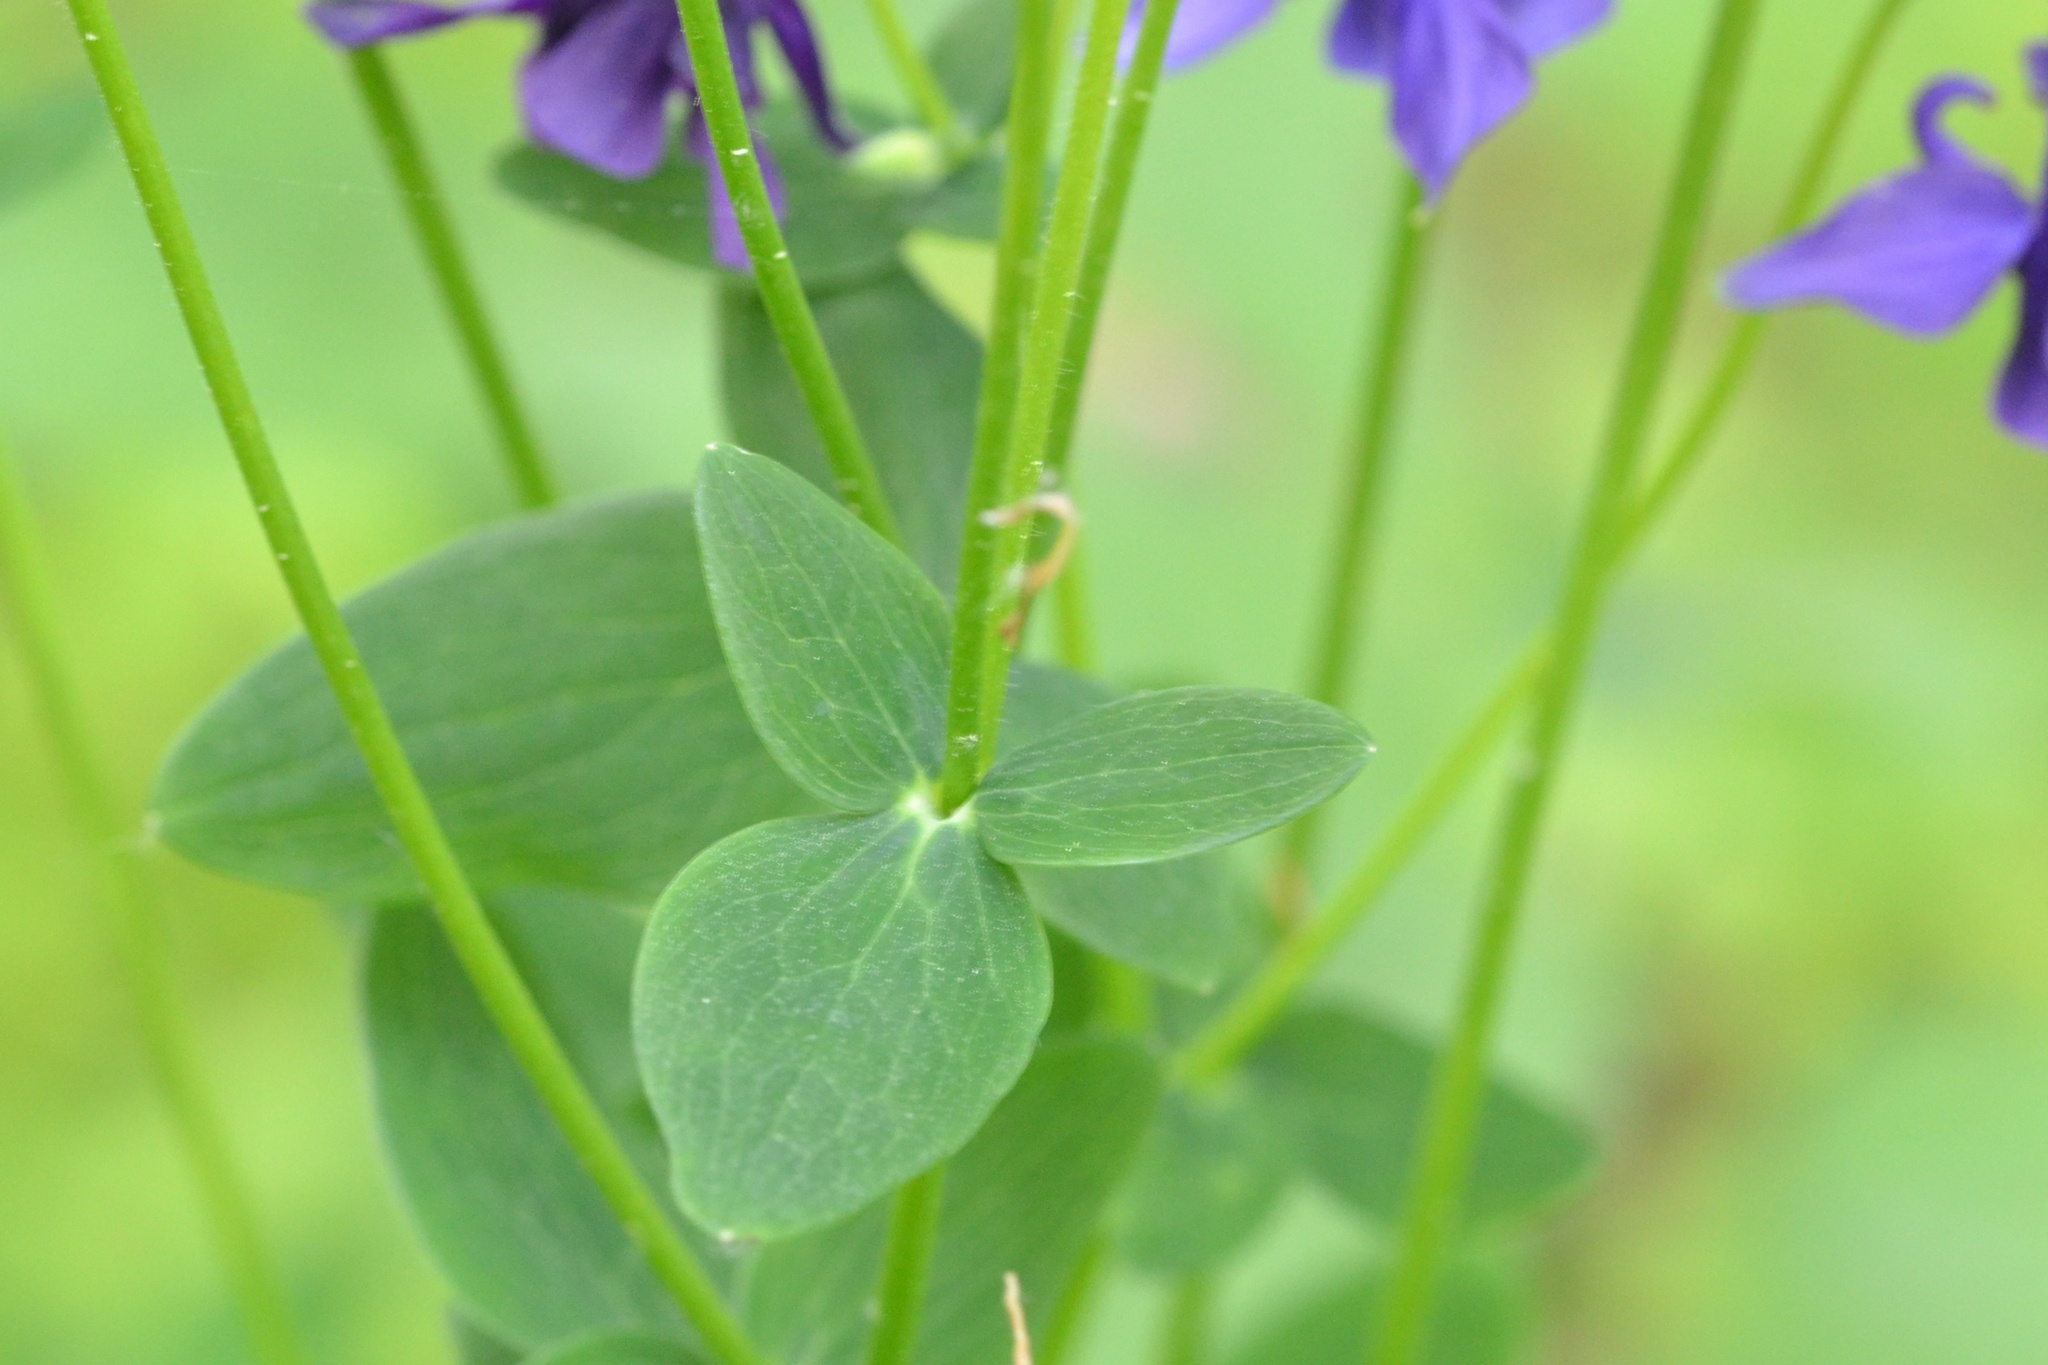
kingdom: Plantae
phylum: Tracheophyta
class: Magnoliopsida
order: Ranunculales
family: Ranunculaceae
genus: Aquilegia
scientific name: Aquilegia vulgaris
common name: Columbine
